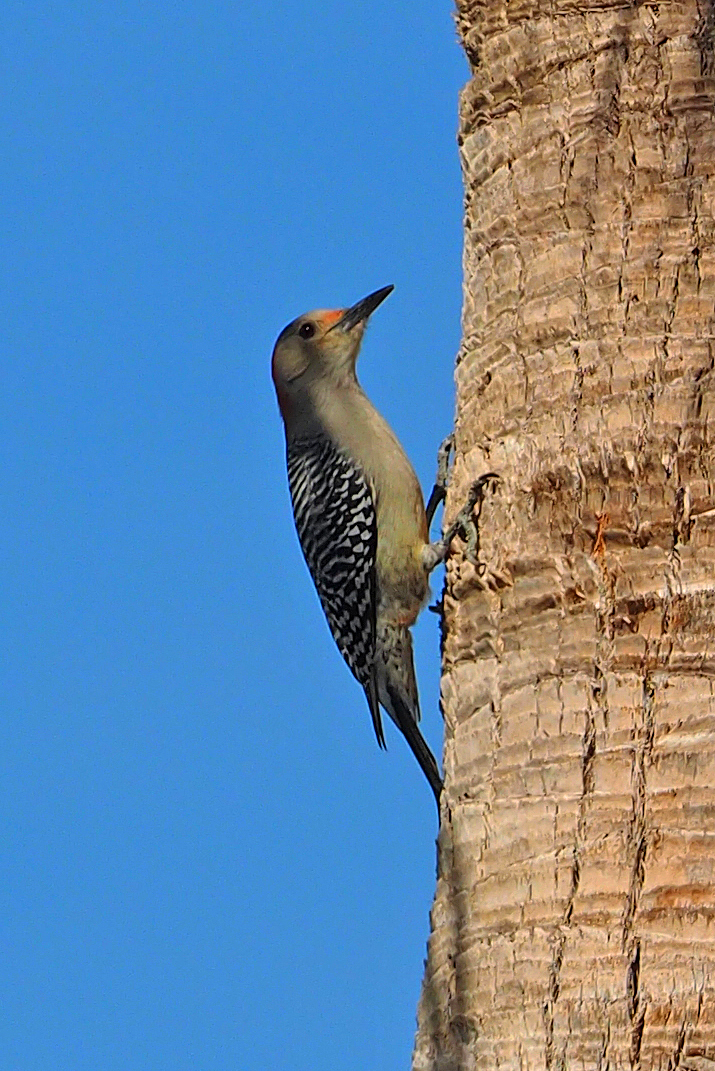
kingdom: Animalia
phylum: Chordata
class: Aves
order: Piciformes
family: Picidae
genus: Melanerpes
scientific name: Melanerpes carolinus
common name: Red-bellied woodpecker
